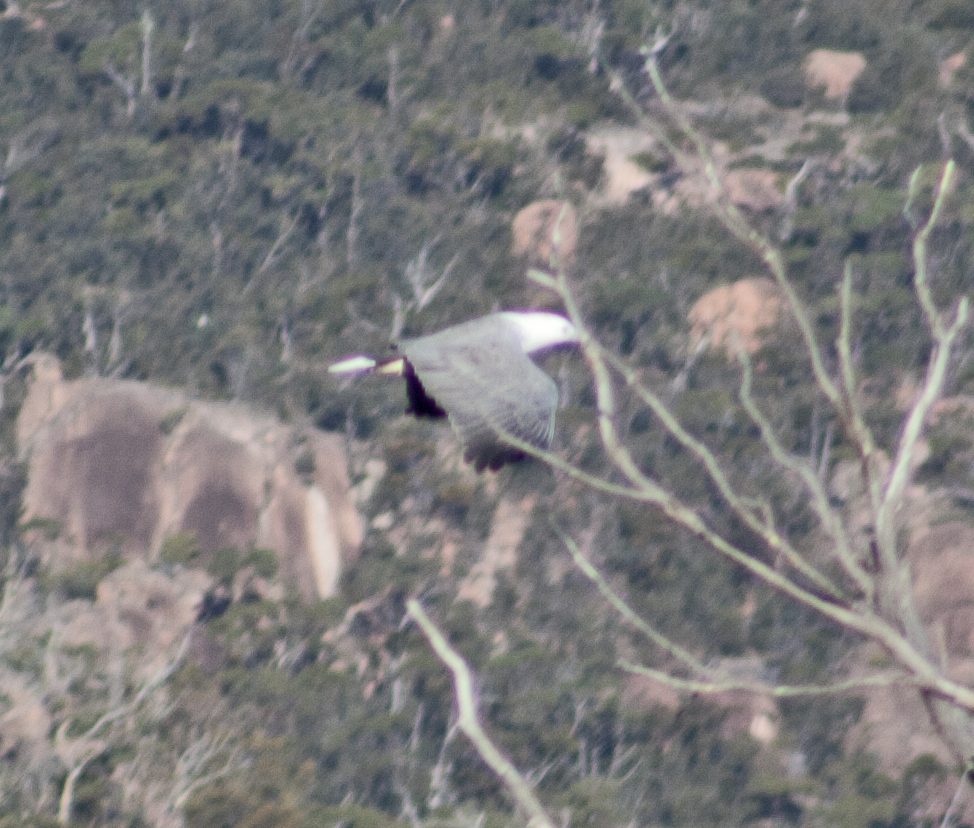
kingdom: Animalia
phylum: Chordata
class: Aves
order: Accipitriformes
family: Accipitridae
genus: Haliaeetus
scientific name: Haliaeetus leucogaster
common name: White-bellied sea eagle
